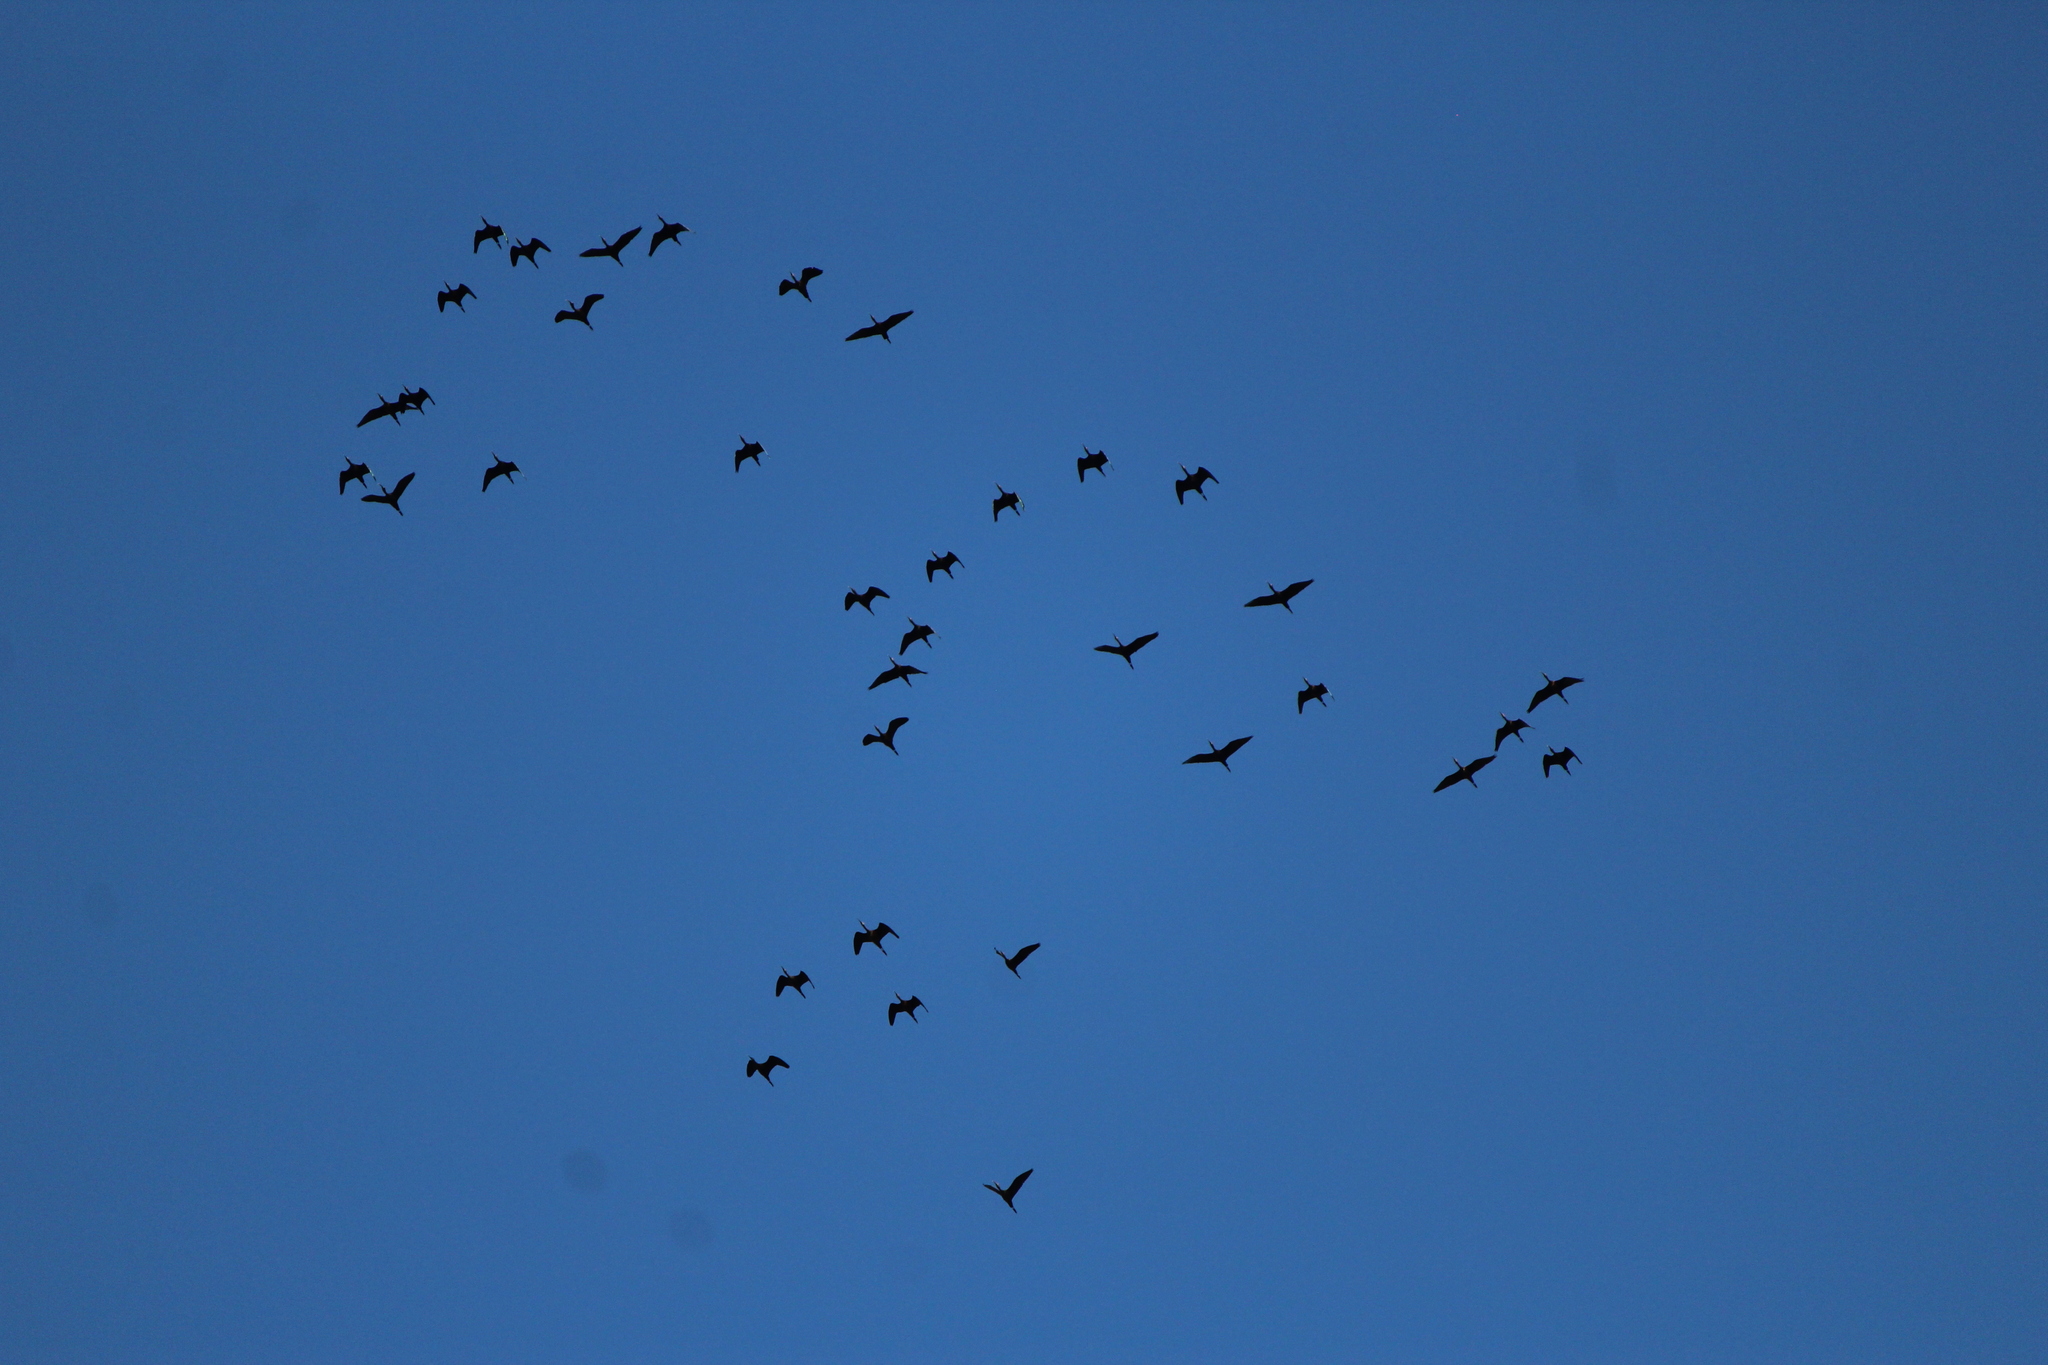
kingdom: Animalia
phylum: Chordata
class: Aves
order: Pelecaniformes
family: Threskiornithidae
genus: Plegadis
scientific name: Plegadis chihi
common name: White-faced ibis
